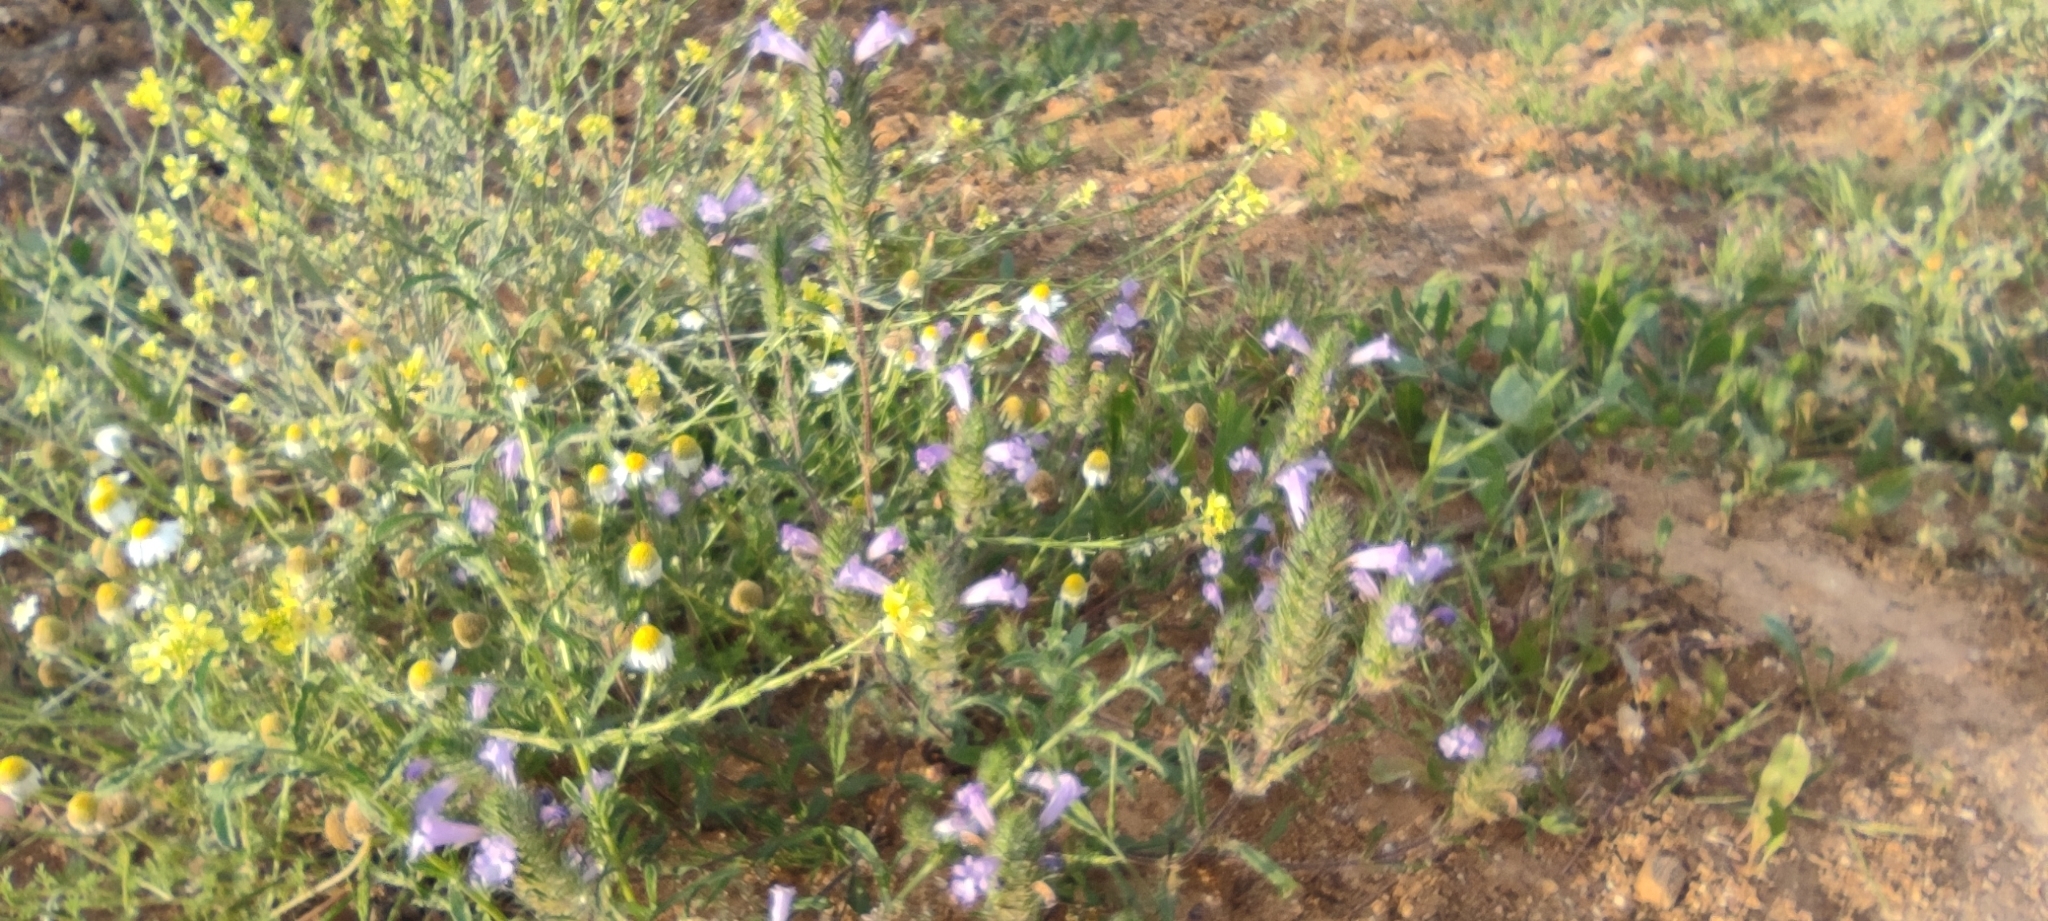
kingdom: Plantae
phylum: Tracheophyta
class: Magnoliopsida
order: Lamiales
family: Lamiaceae
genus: Cleonia
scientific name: Cleonia lusitanica
